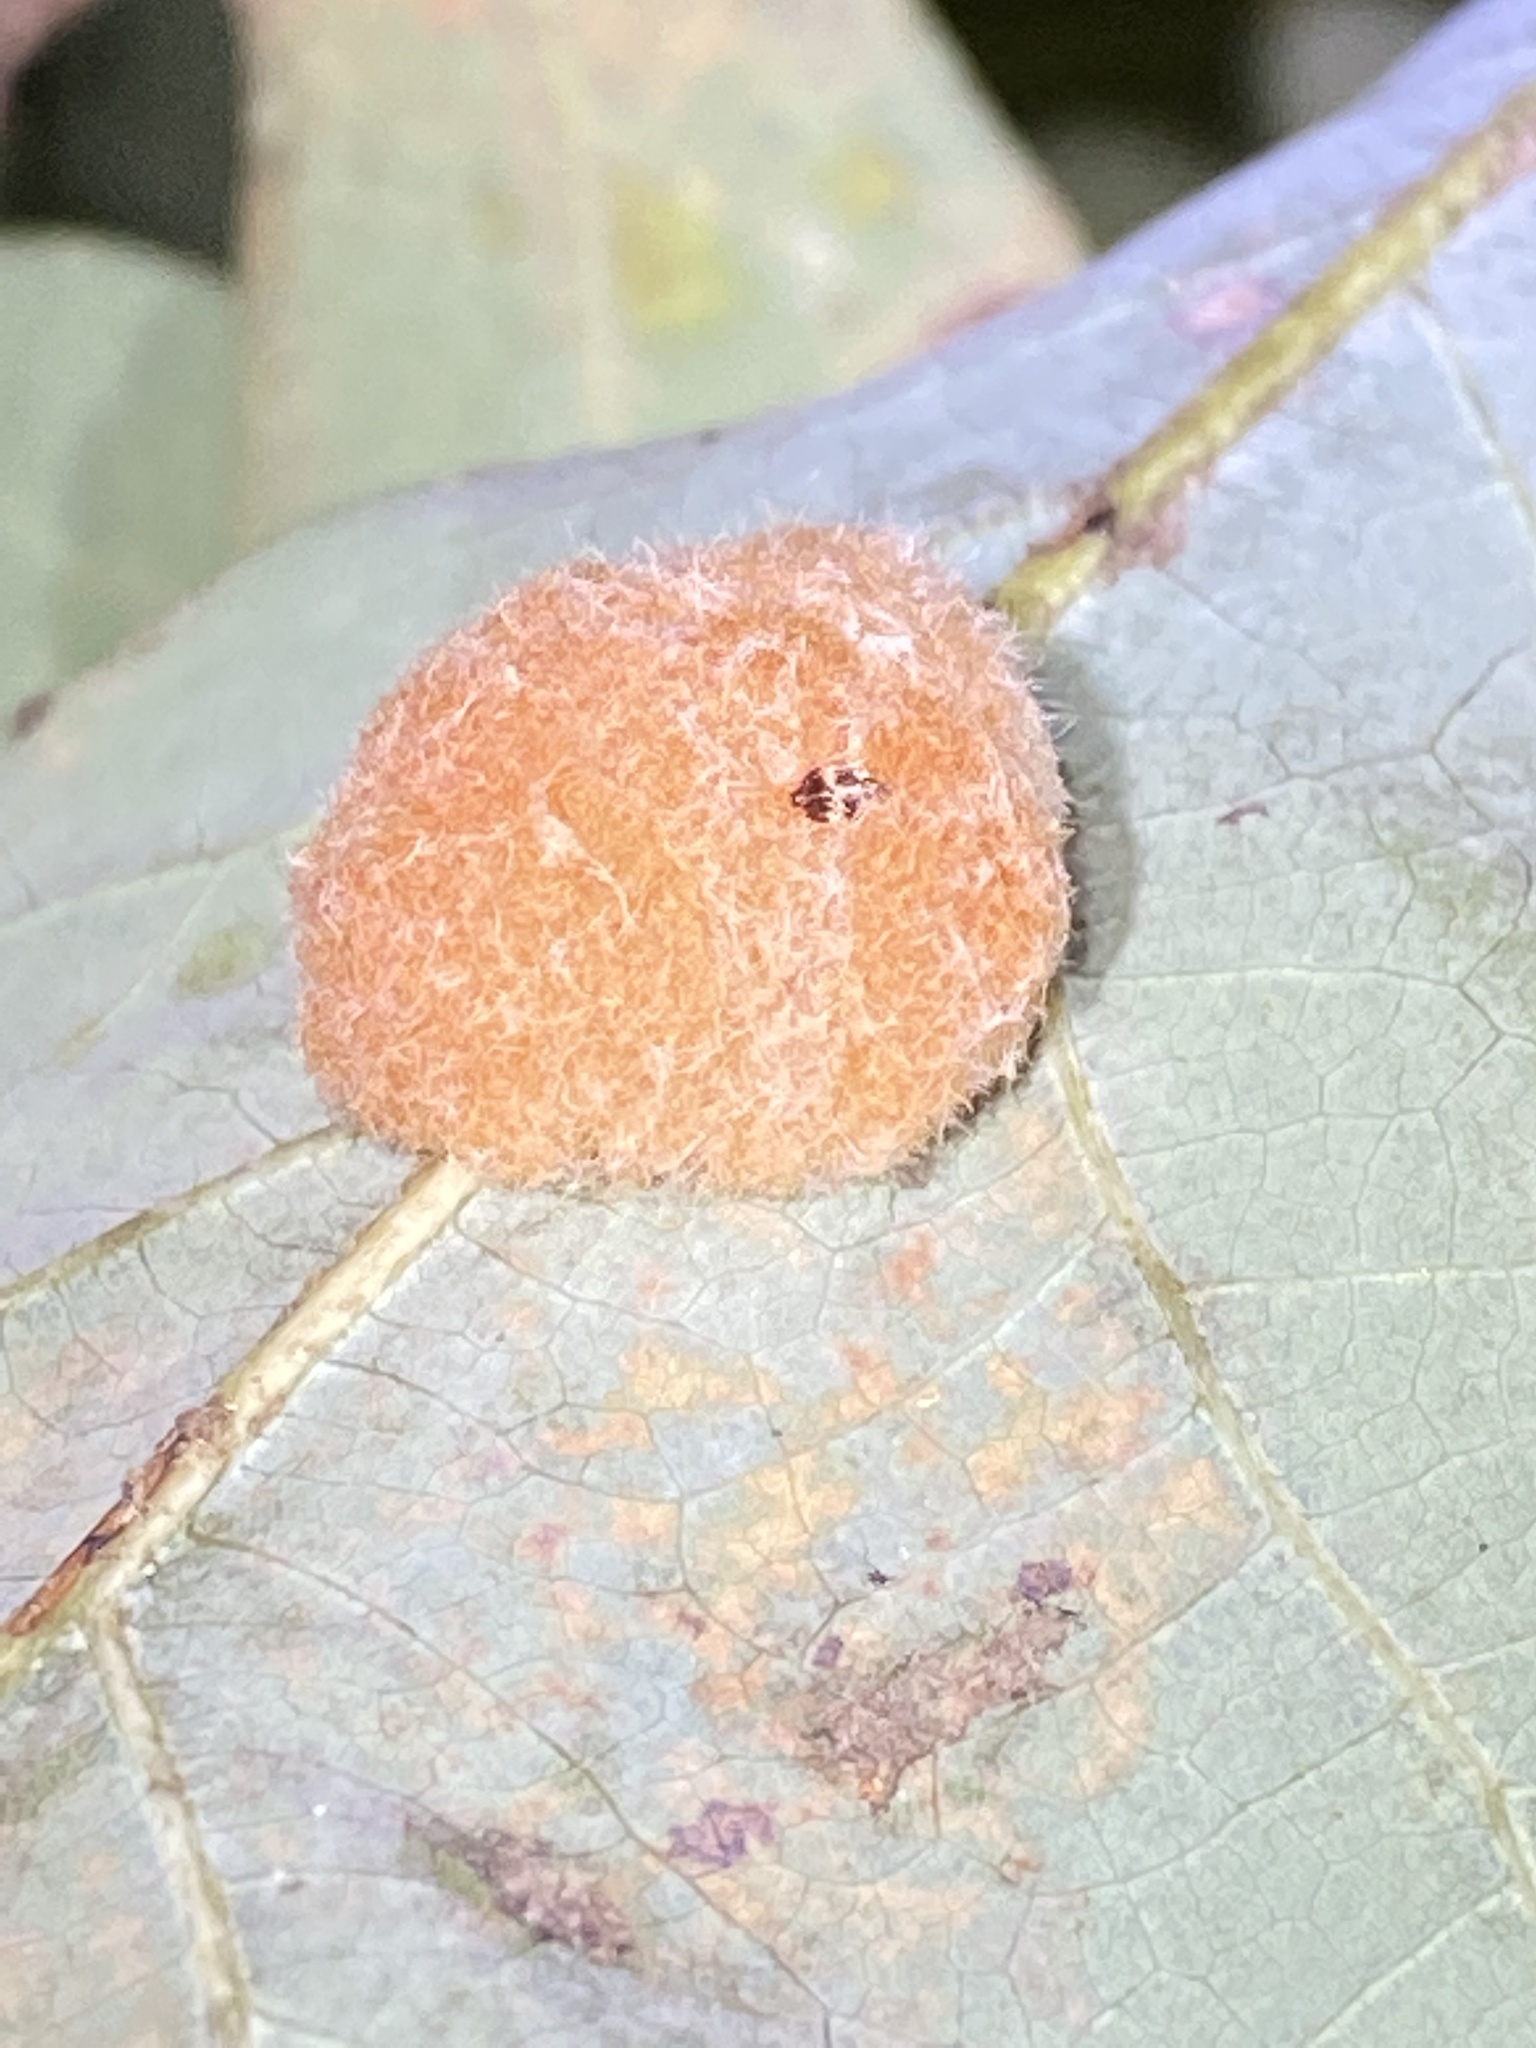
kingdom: Animalia
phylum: Arthropoda
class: Insecta
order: Hymenoptera
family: Cynipidae
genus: Andricus
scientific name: Andricus quercusflocci
